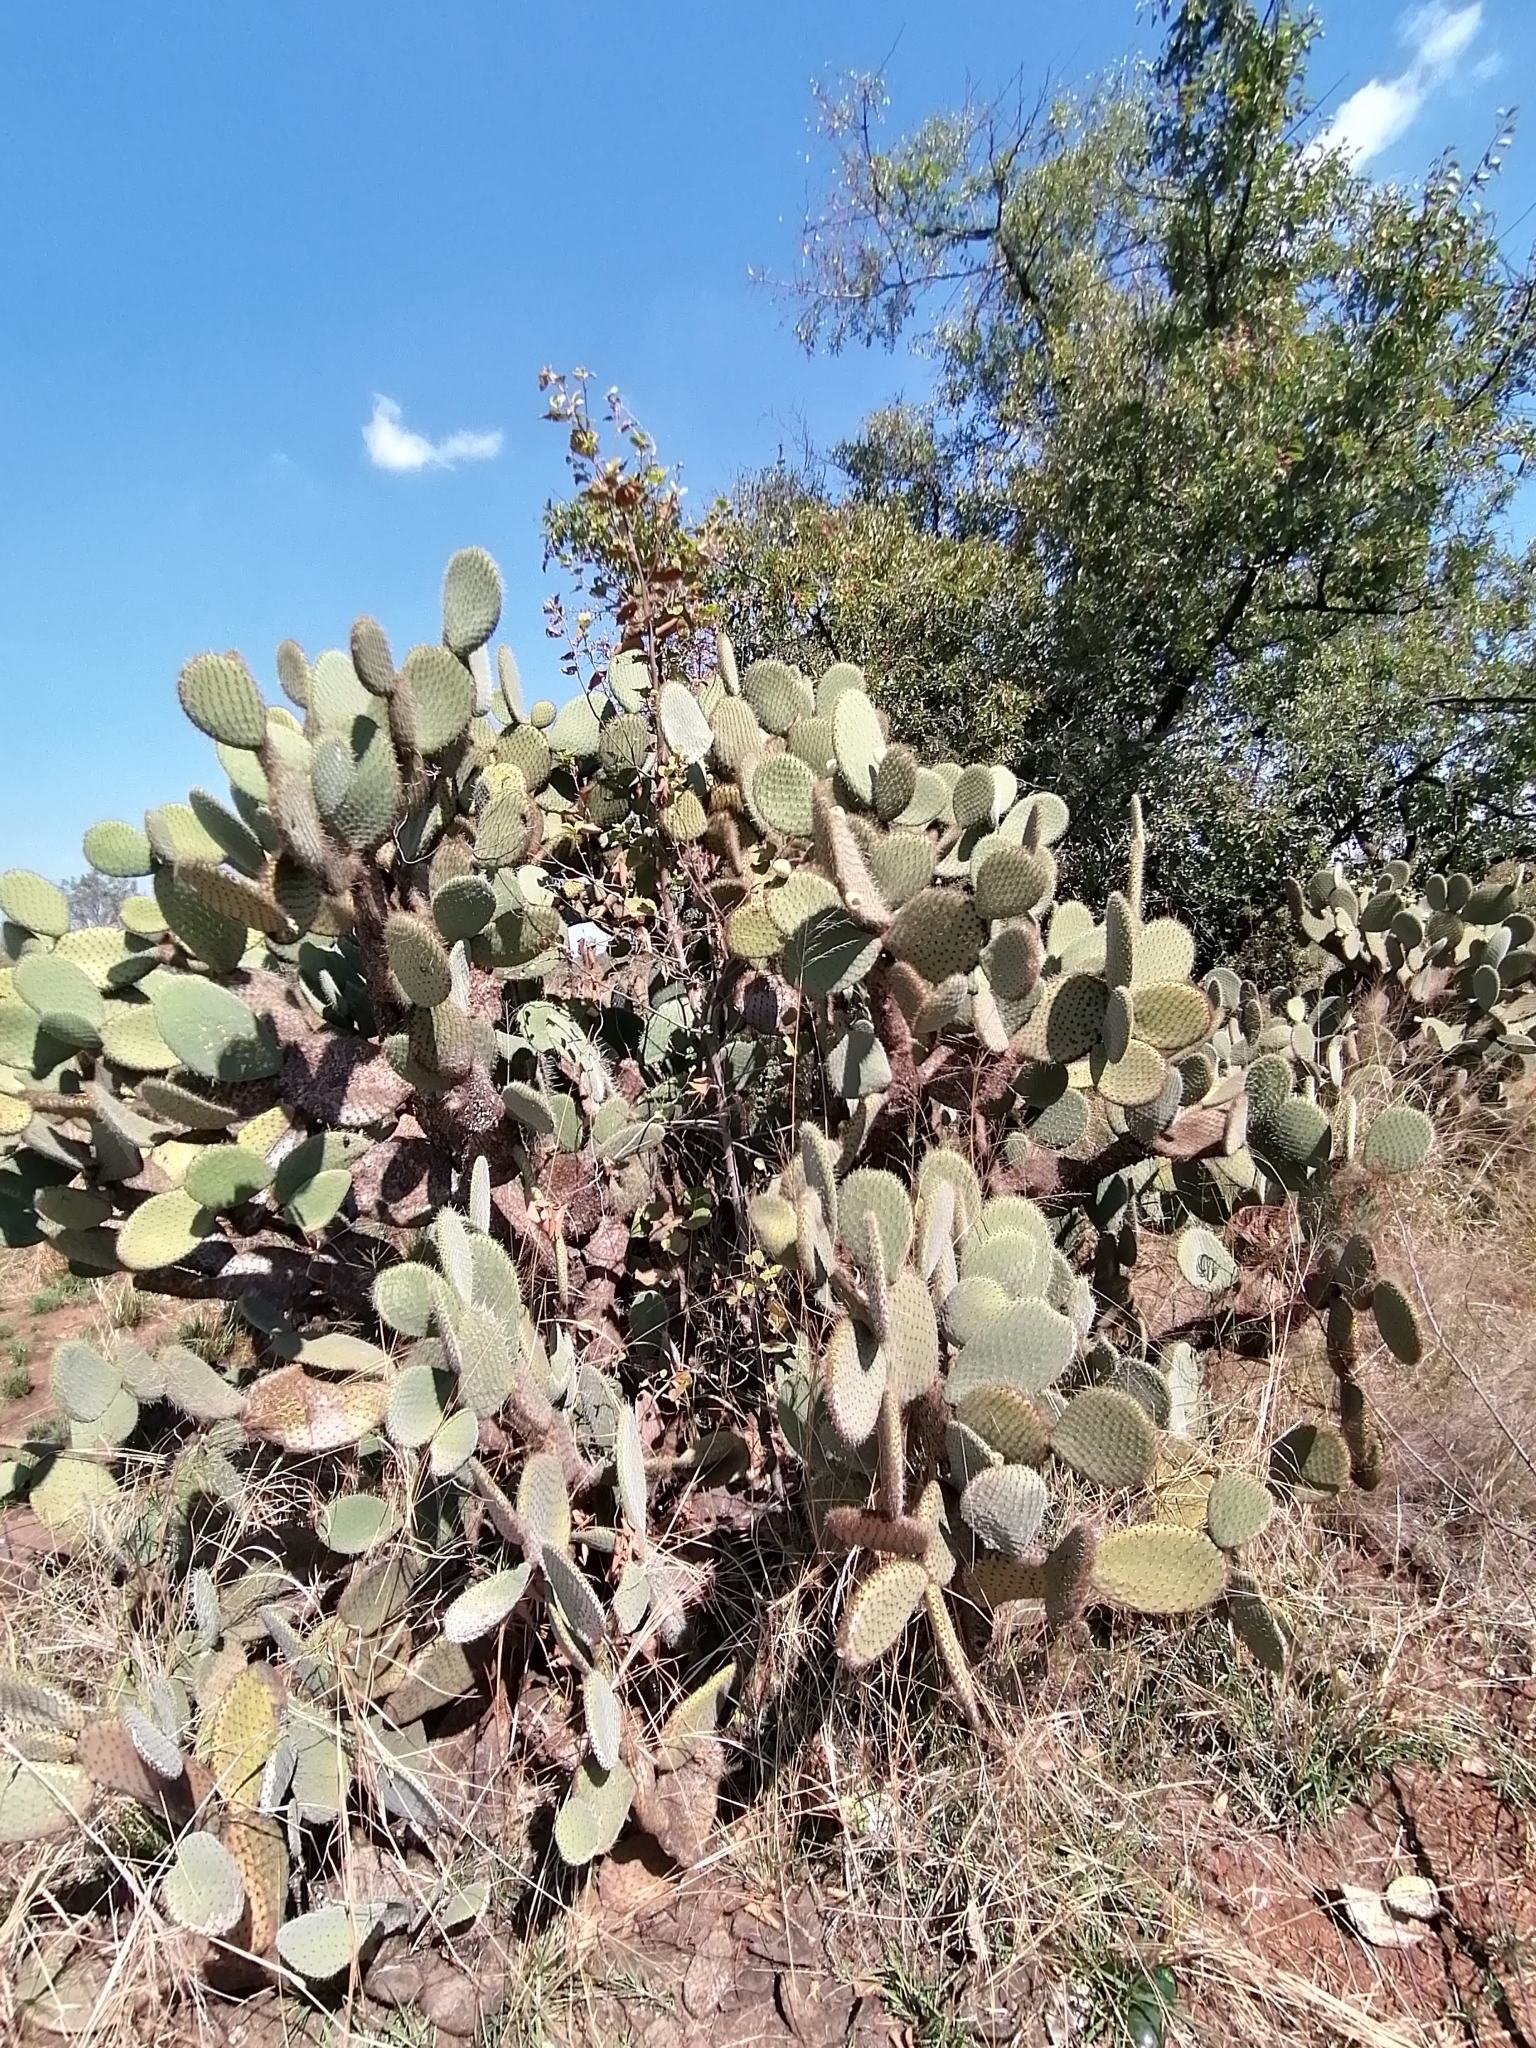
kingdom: Plantae
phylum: Tracheophyta
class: Magnoliopsida
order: Caryophyllales
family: Cactaceae
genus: Opuntia
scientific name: Opuntia leucotricha
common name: Arborescent pricklypear
